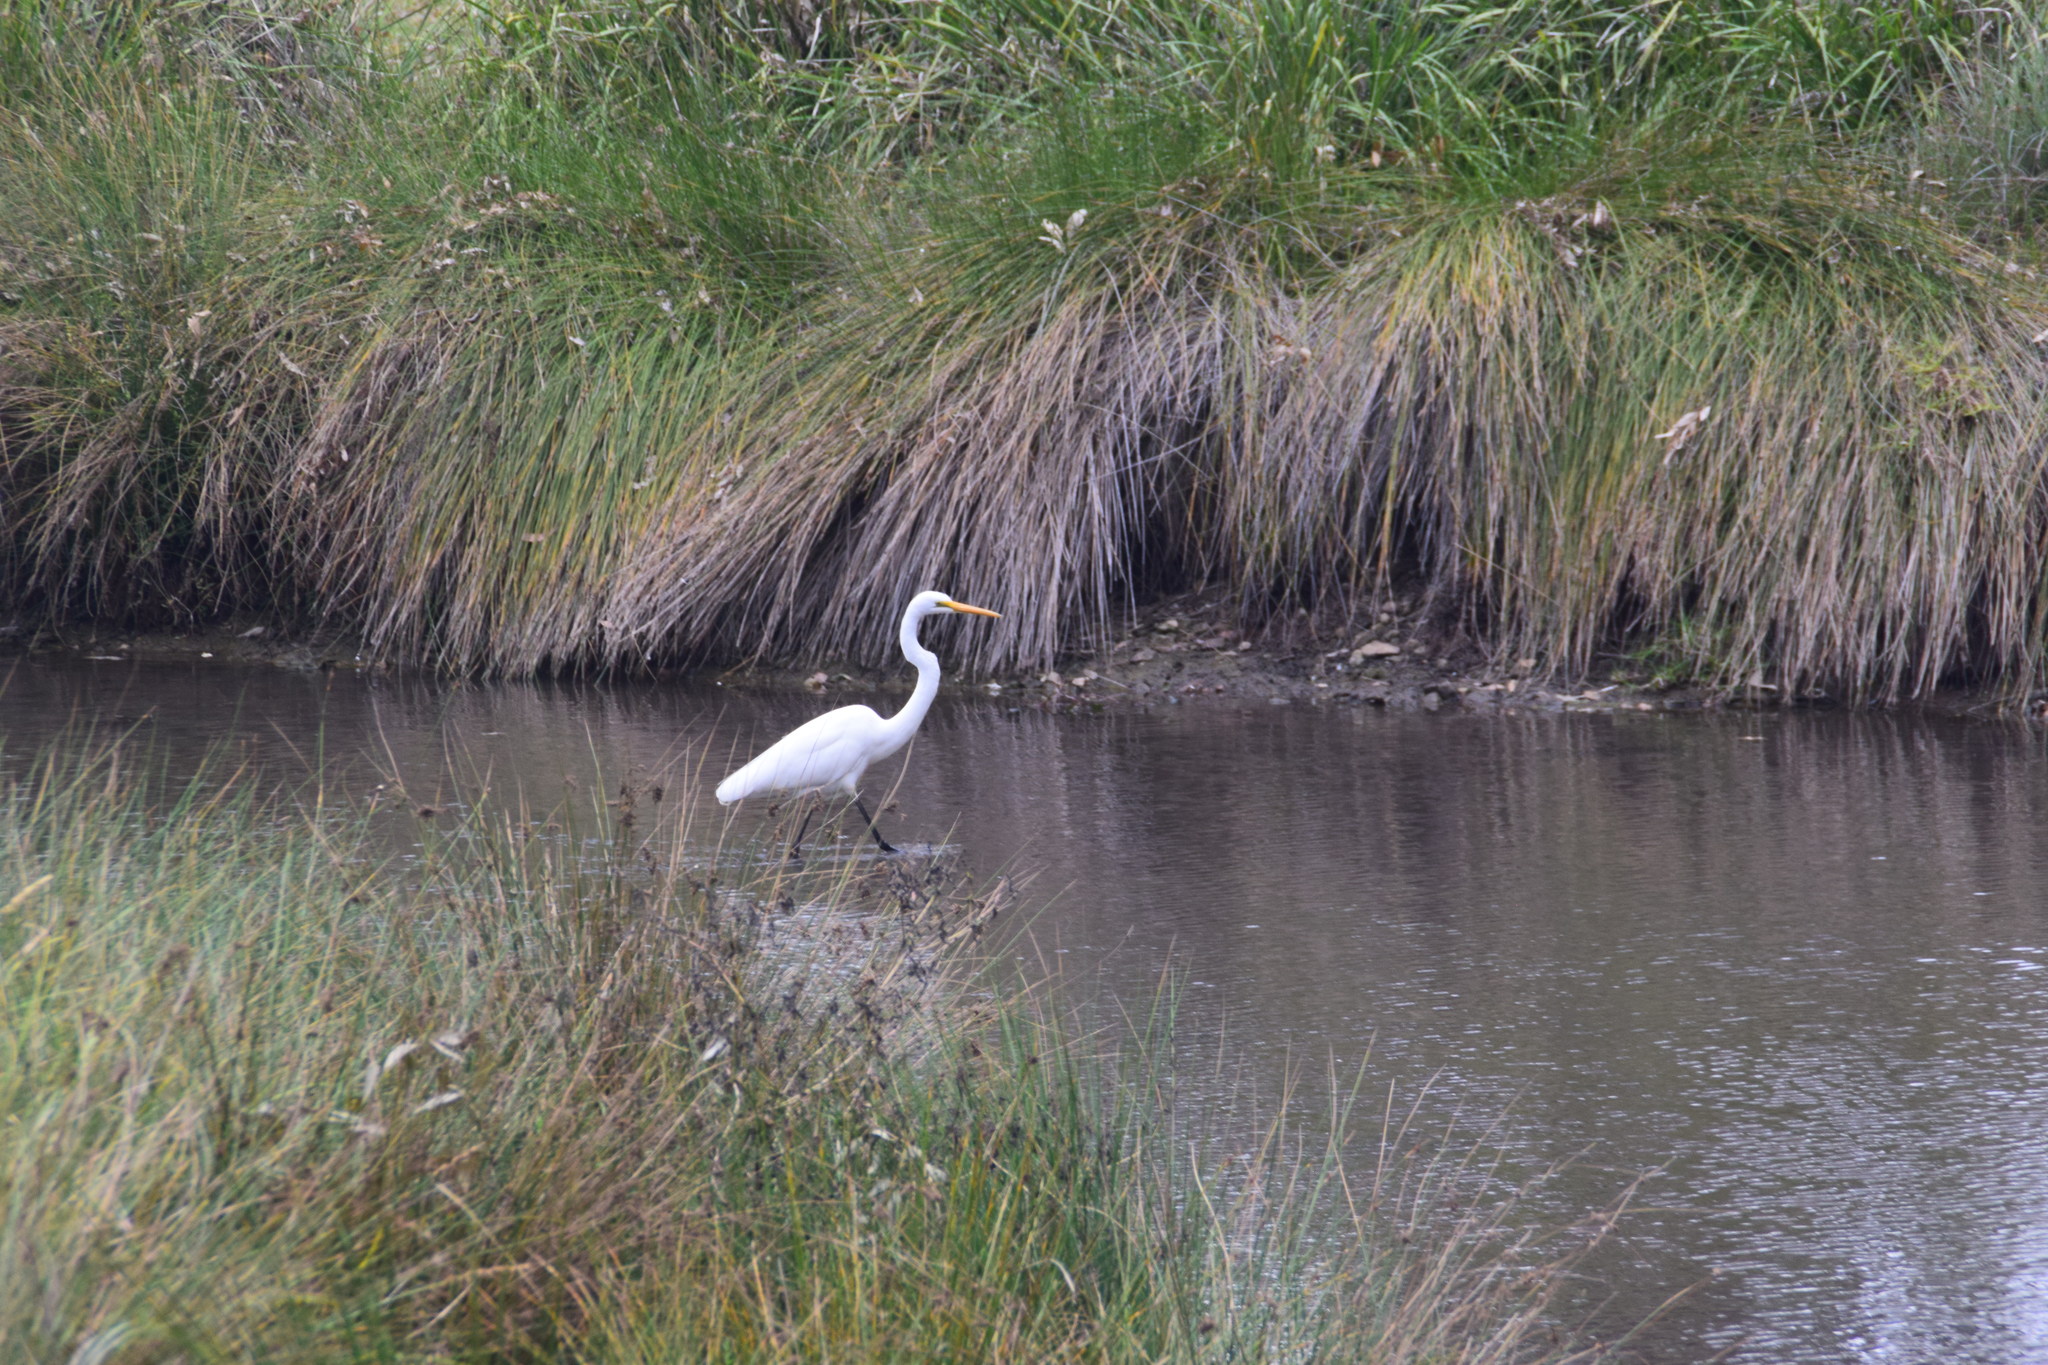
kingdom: Animalia
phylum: Chordata
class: Aves
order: Pelecaniformes
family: Ardeidae
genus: Ardea
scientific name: Ardea modesta
